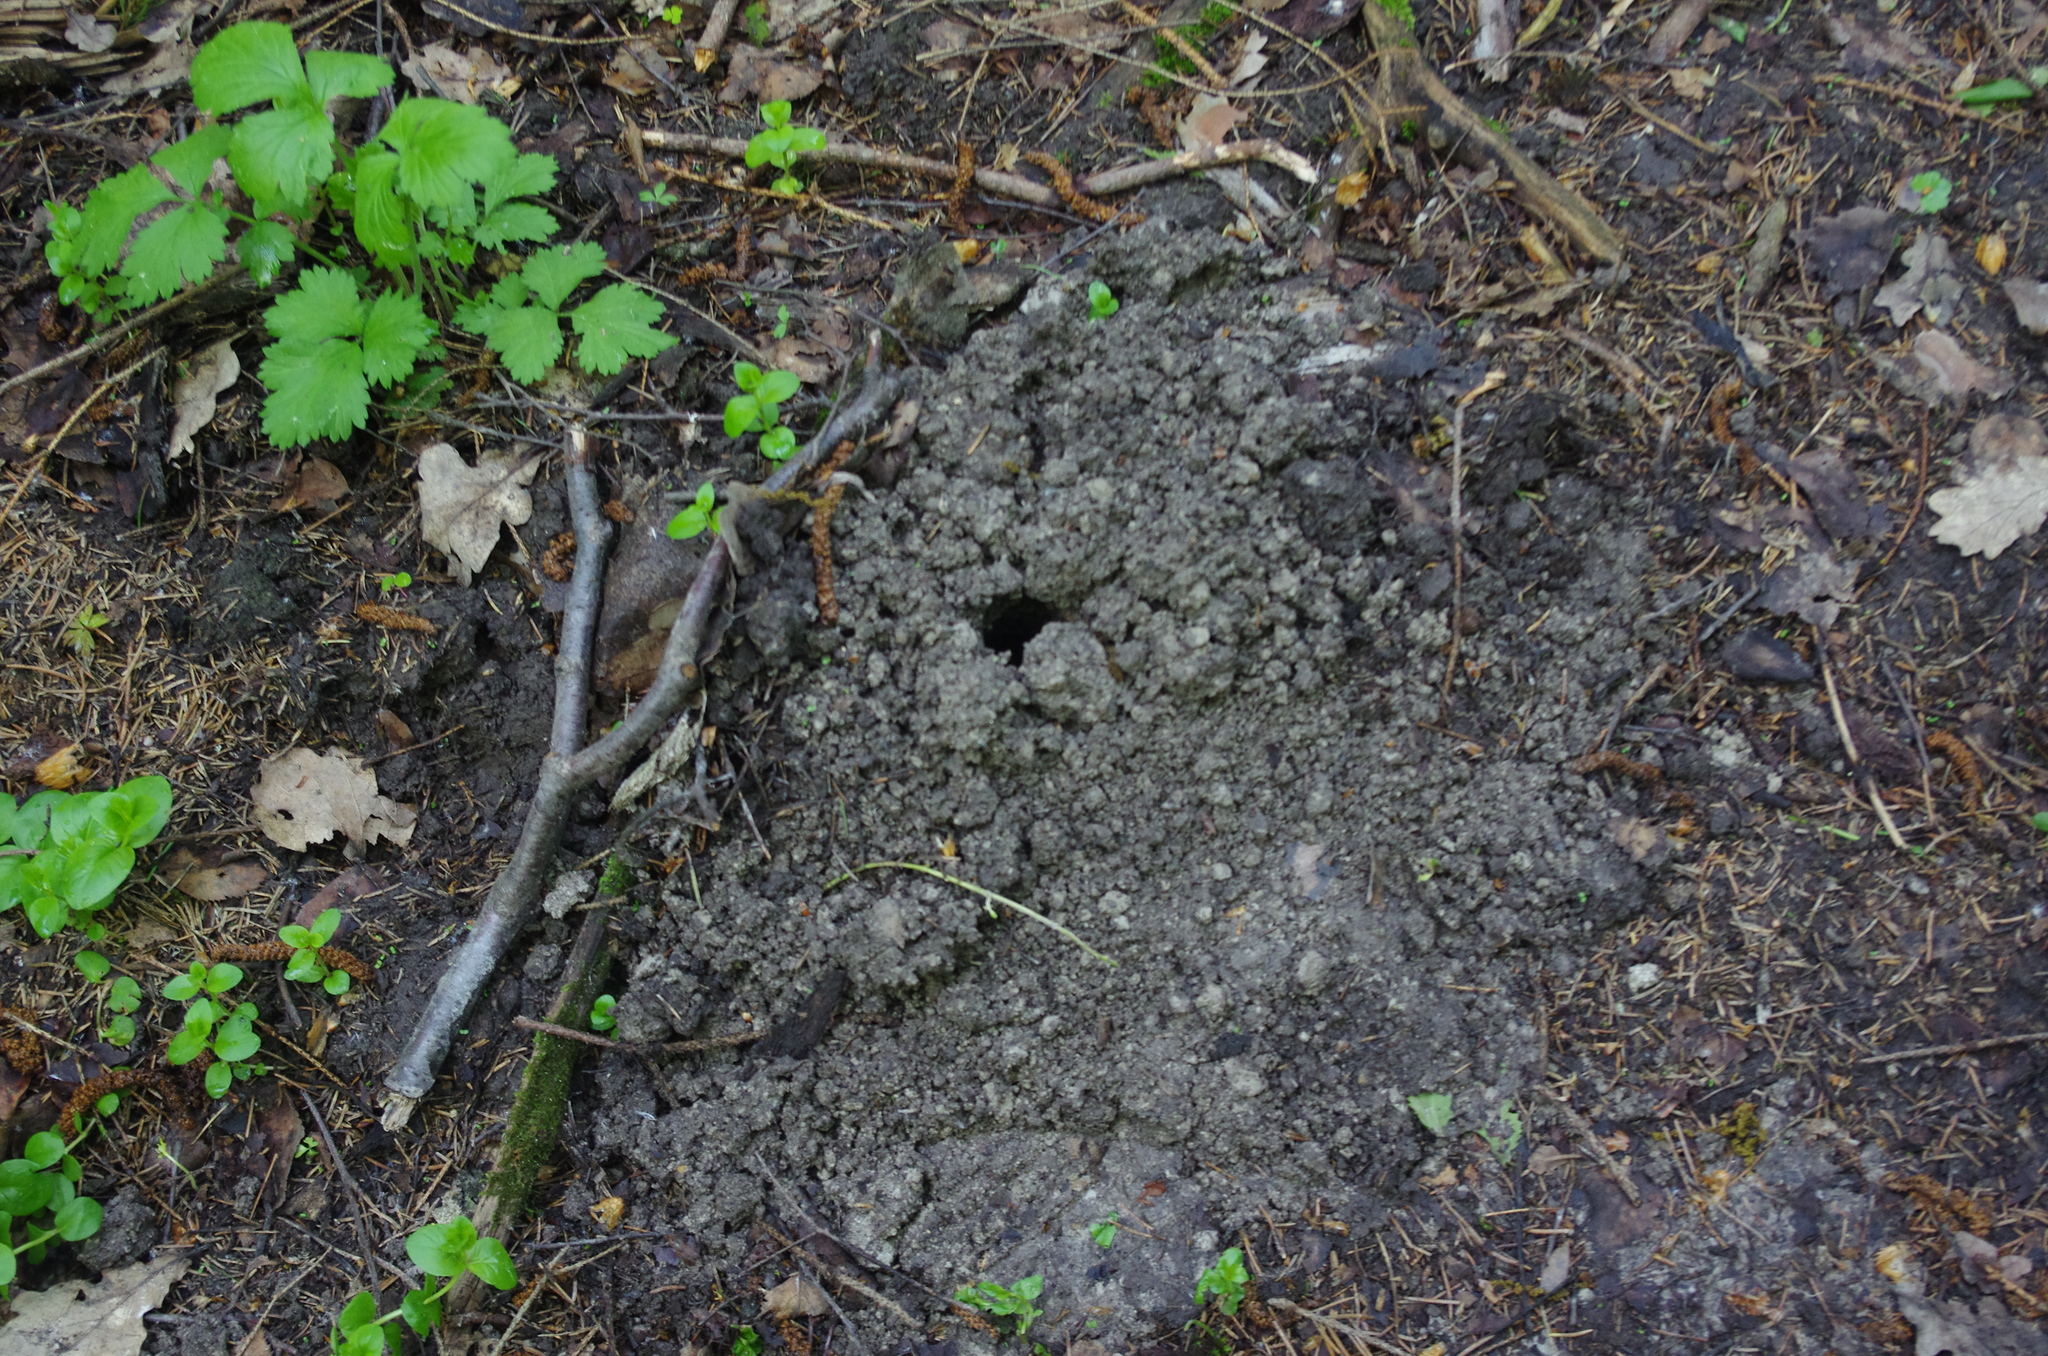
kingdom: Animalia
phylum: Chordata
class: Mammalia
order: Soricomorpha
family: Talpidae
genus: Talpa
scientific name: Talpa europaea
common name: European mole
